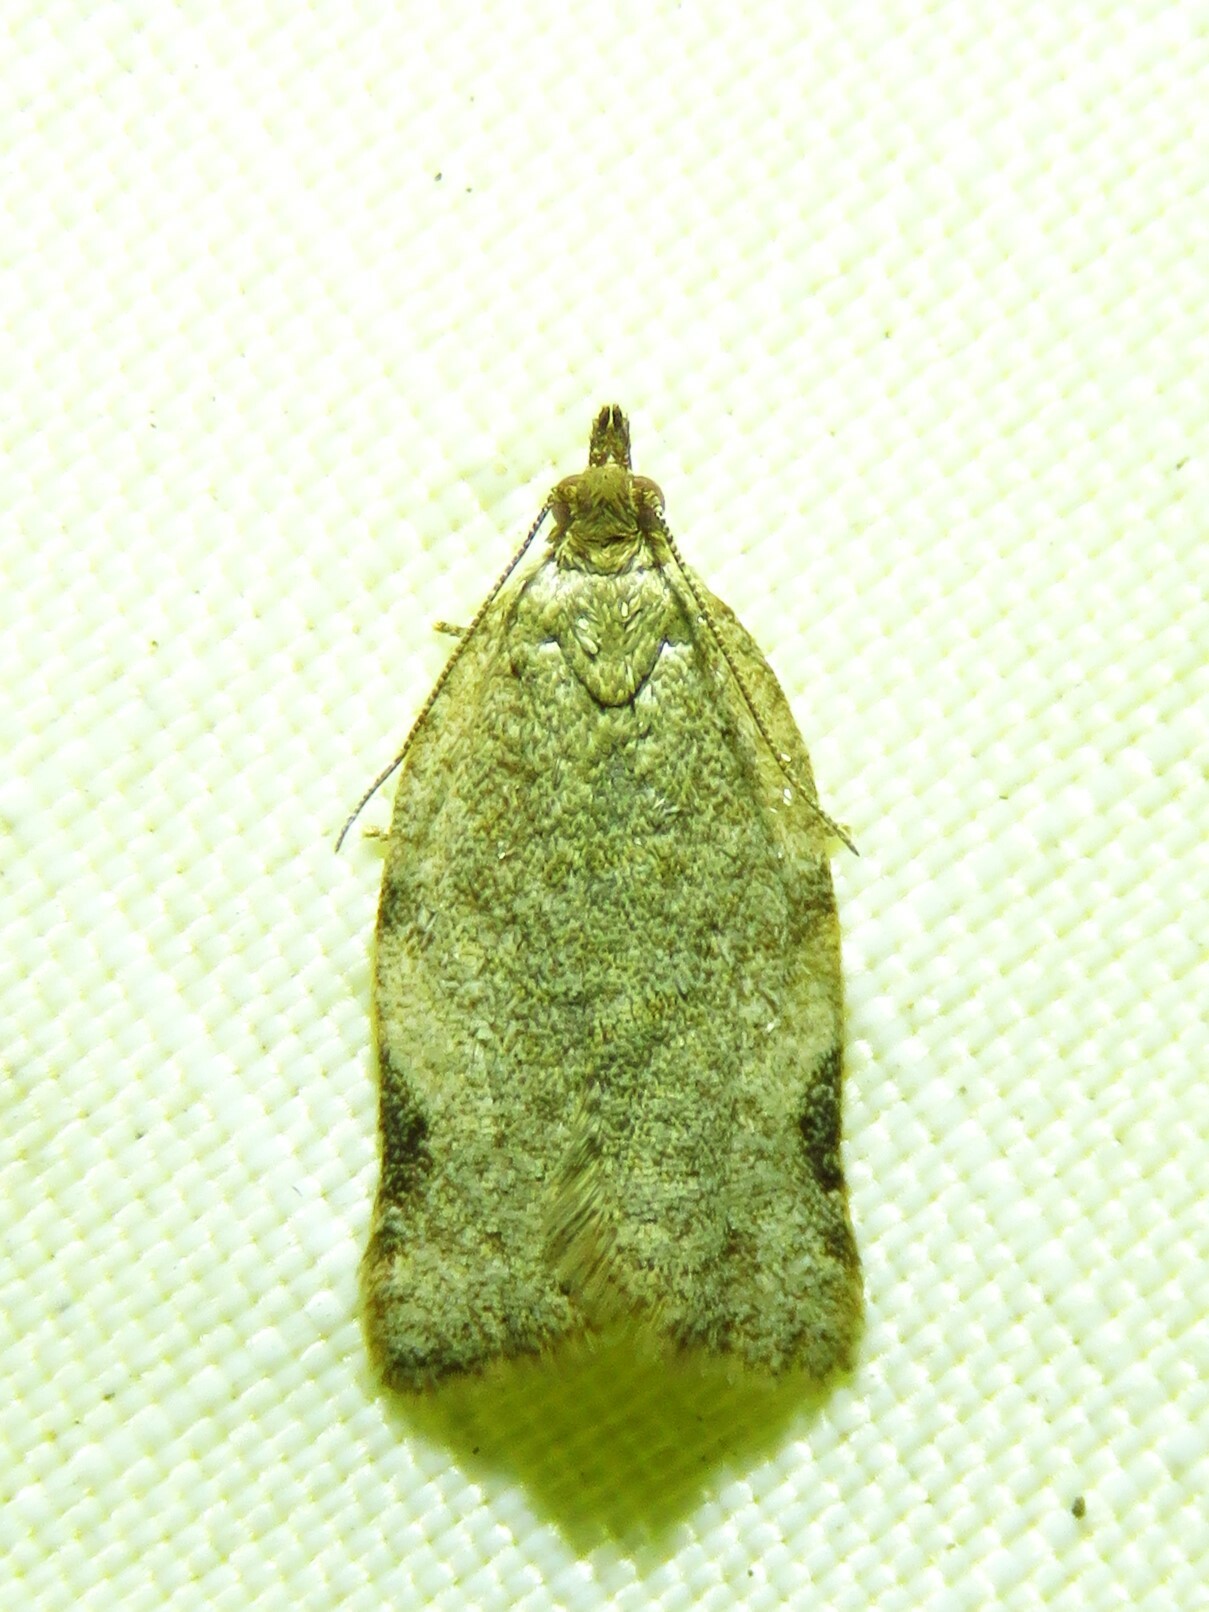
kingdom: Animalia
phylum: Arthropoda
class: Insecta
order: Lepidoptera
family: Tortricidae
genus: Clepsis
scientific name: Clepsis virescana
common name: Greenish apple moth
